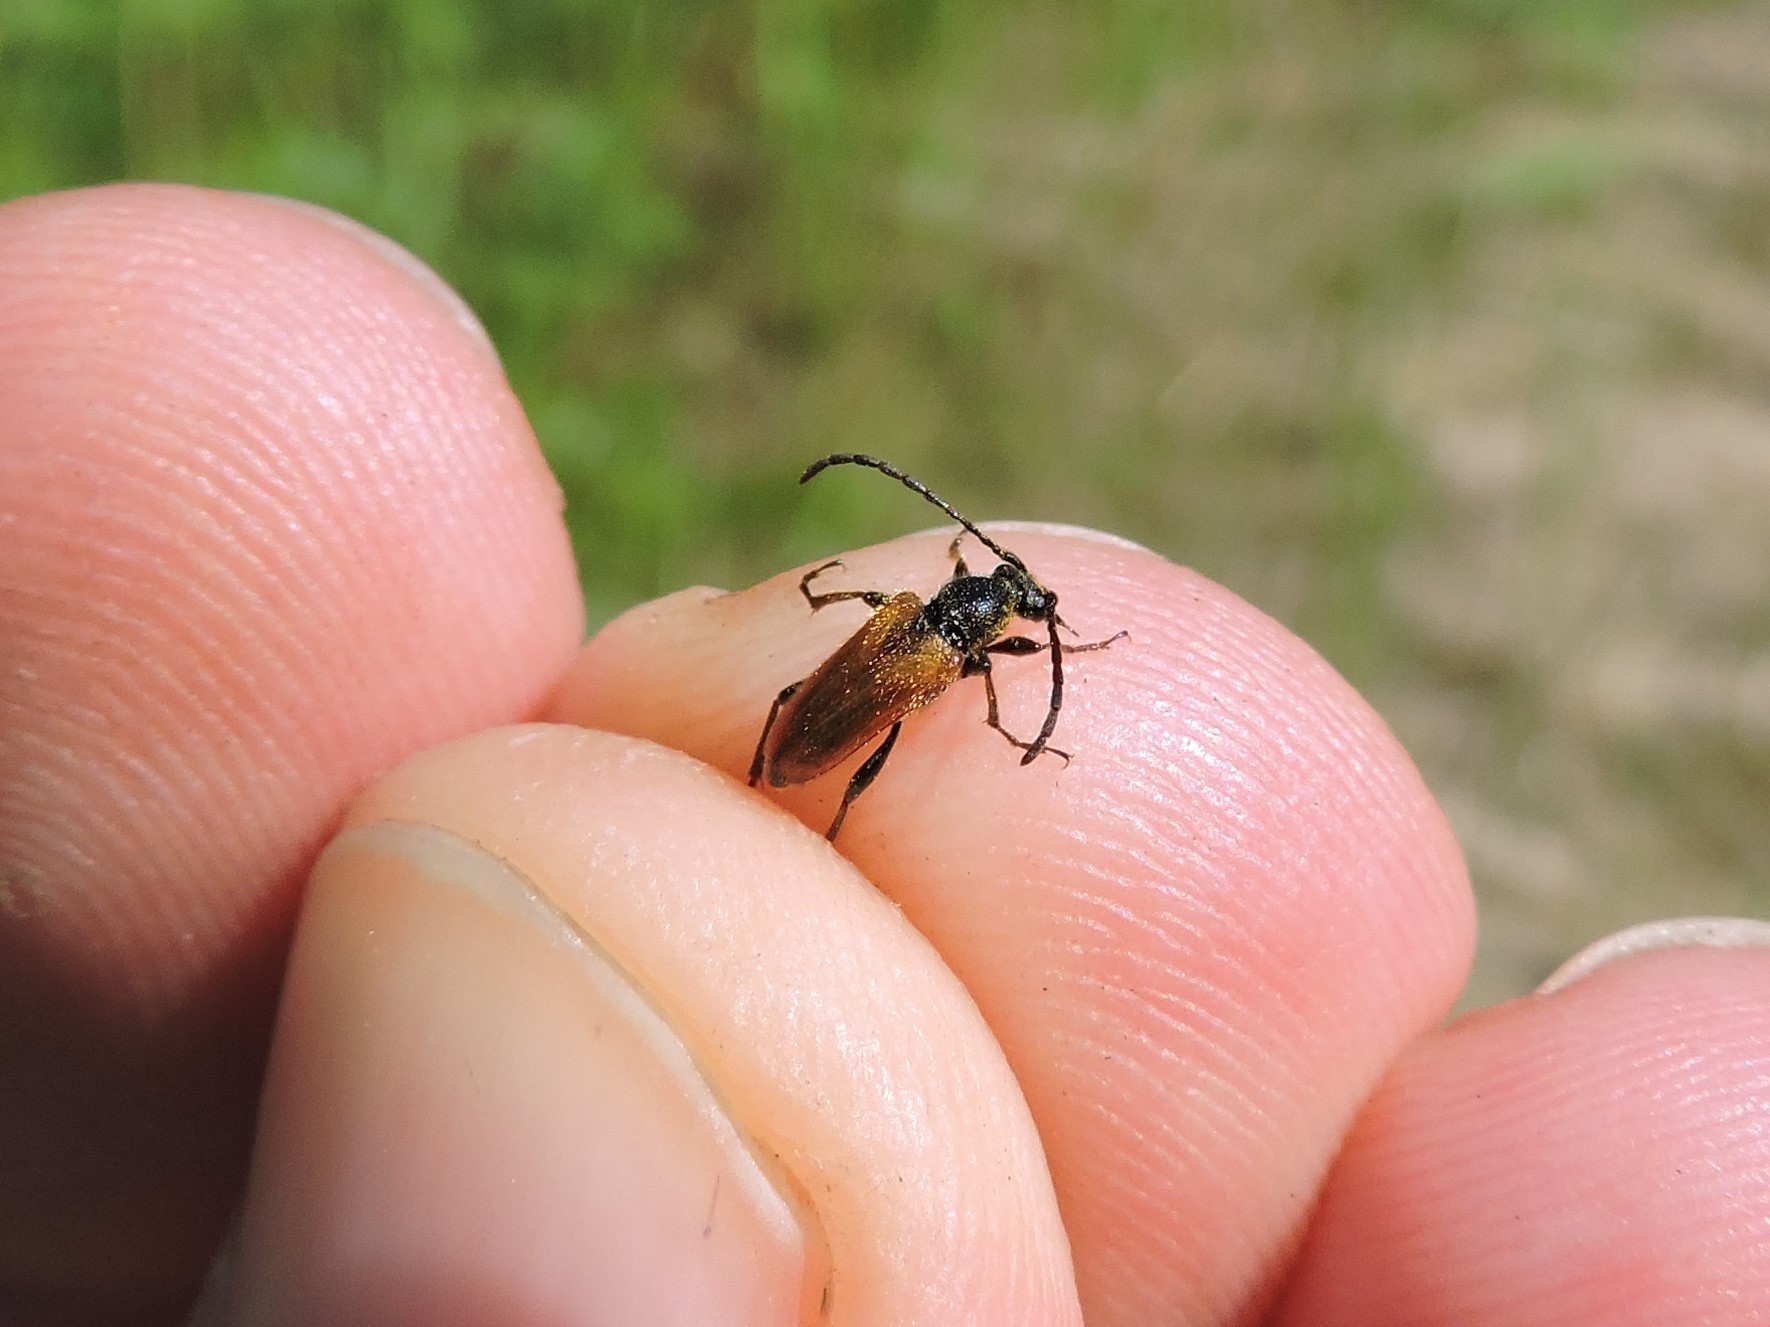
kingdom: Animalia
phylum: Arthropoda
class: Insecta
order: Coleoptera
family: Cerambycidae
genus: Pseudovadonia
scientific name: Pseudovadonia livida
